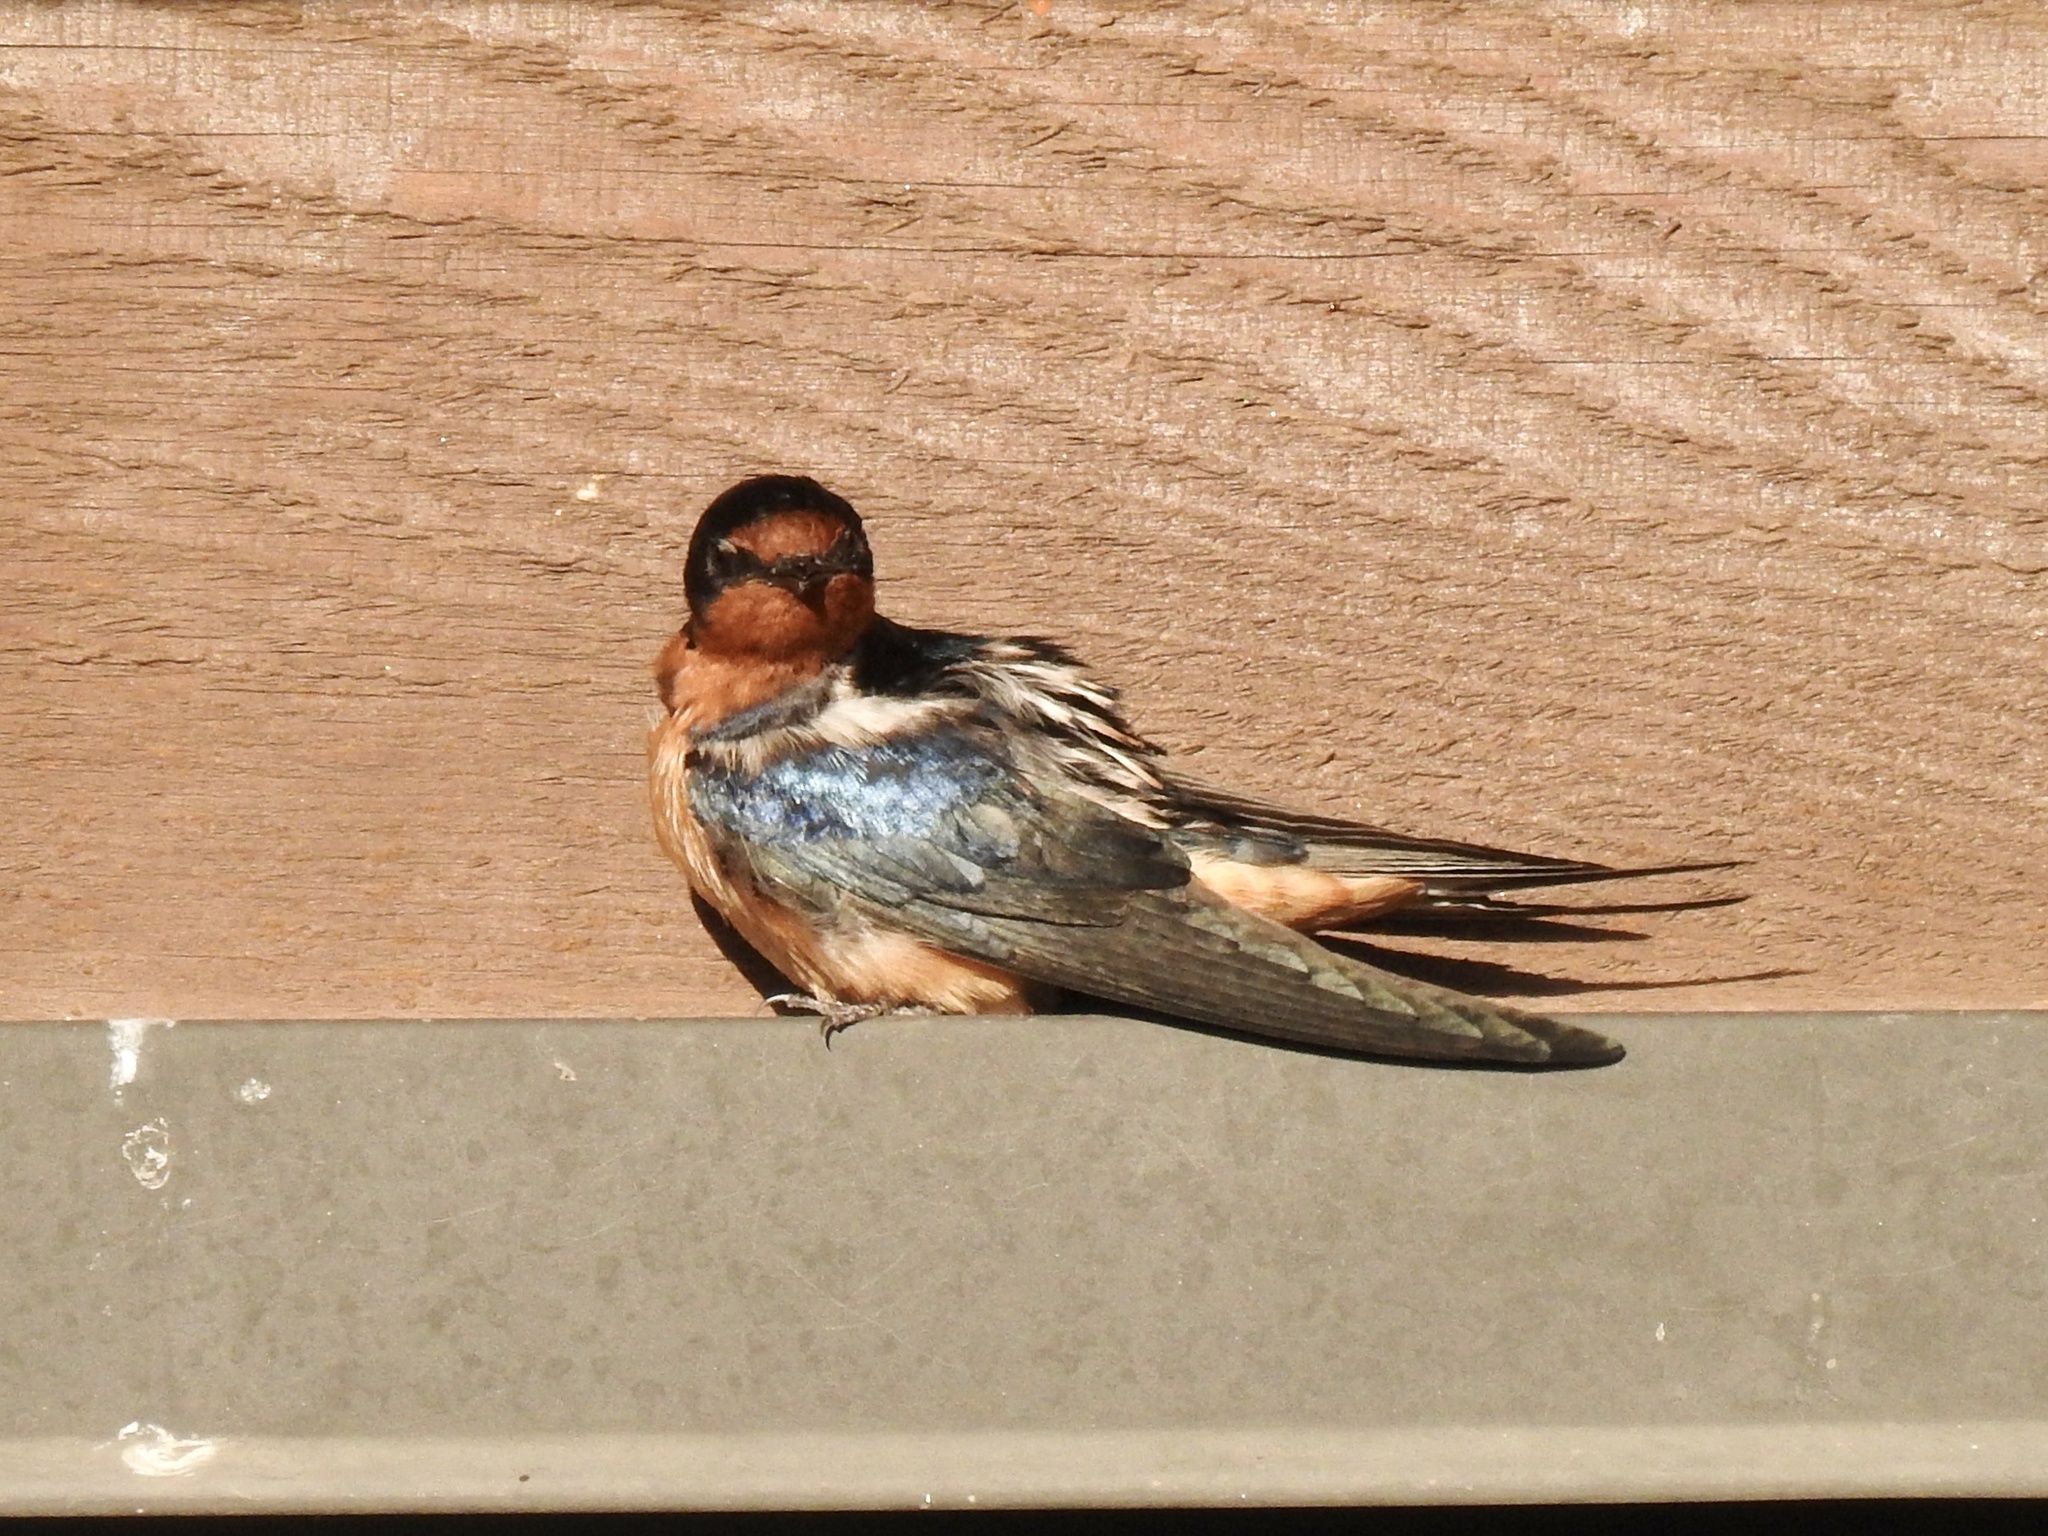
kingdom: Animalia
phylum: Chordata
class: Aves
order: Passeriformes
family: Hirundinidae
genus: Hirundo
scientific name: Hirundo rustica
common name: Barn swallow
